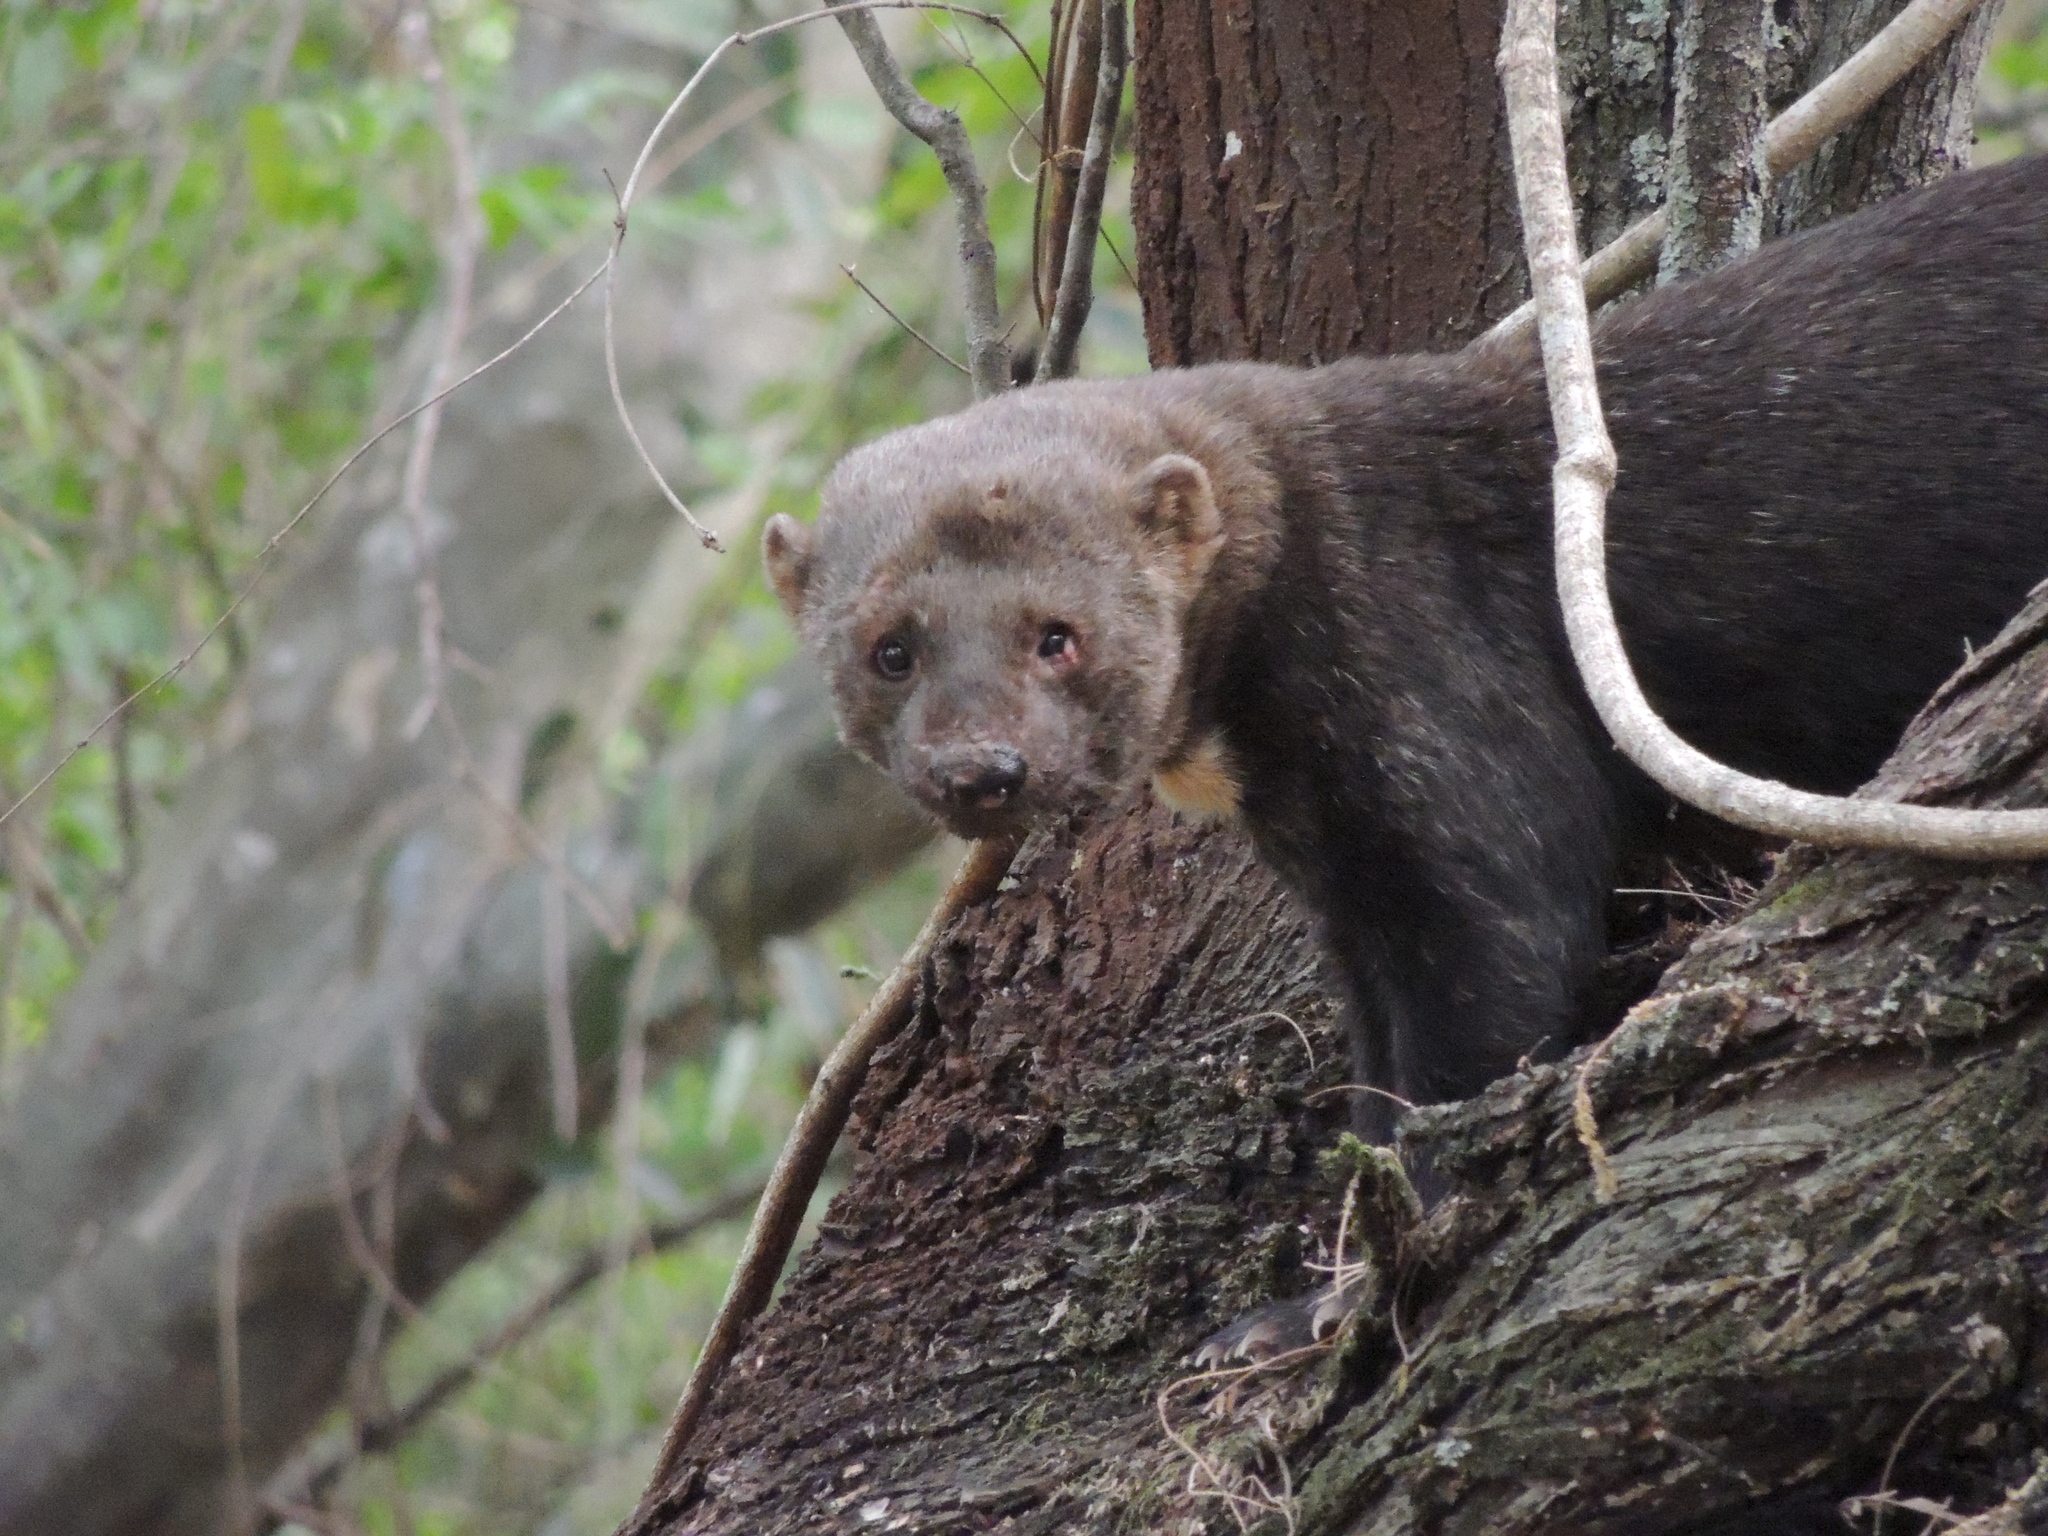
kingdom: Animalia
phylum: Chordata
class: Mammalia
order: Carnivora
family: Mustelidae
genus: Eira
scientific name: Eira barbara
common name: Tayra
